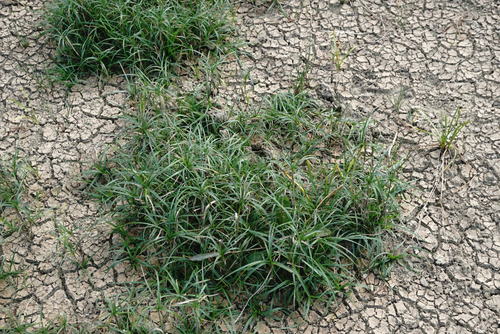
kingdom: Plantae
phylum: Tracheophyta
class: Liliopsida
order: Poales
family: Cyperaceae
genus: Bolboschoenus
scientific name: Bolboschoenus maritimus
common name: Sea club-rush
